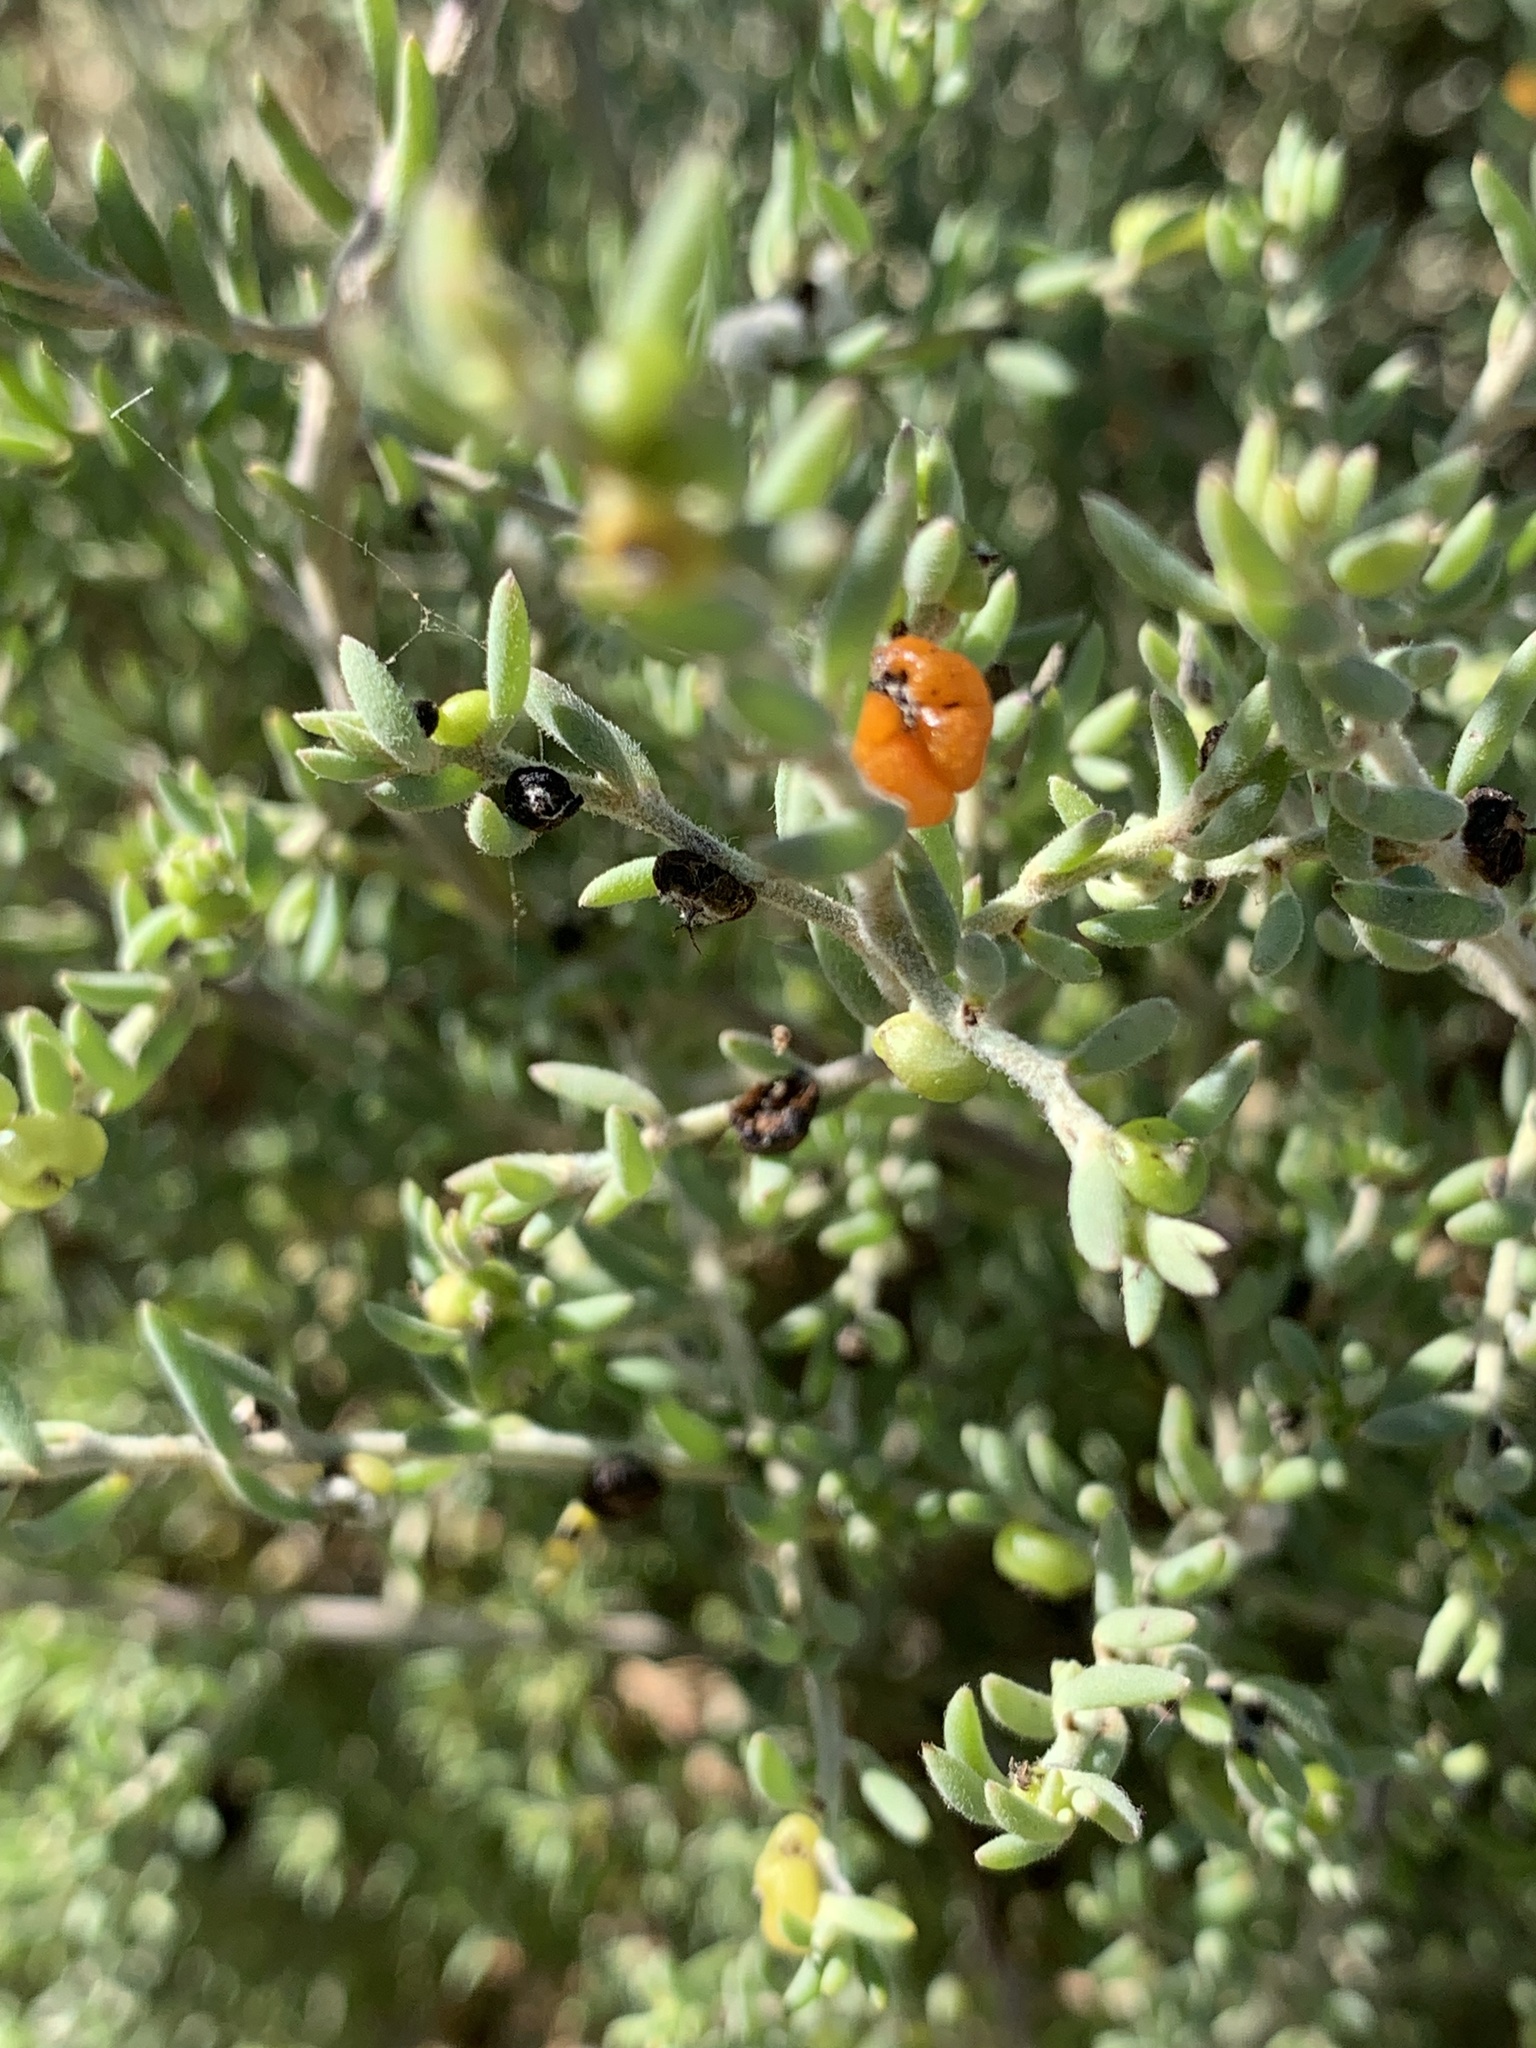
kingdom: Plantae
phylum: Tracheophyta
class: Magnoliopsida
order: Caryophyllales
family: Amaranthaceae
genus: Enchylaena
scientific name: Enchylaena tomentosa
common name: Ruby saltbush
